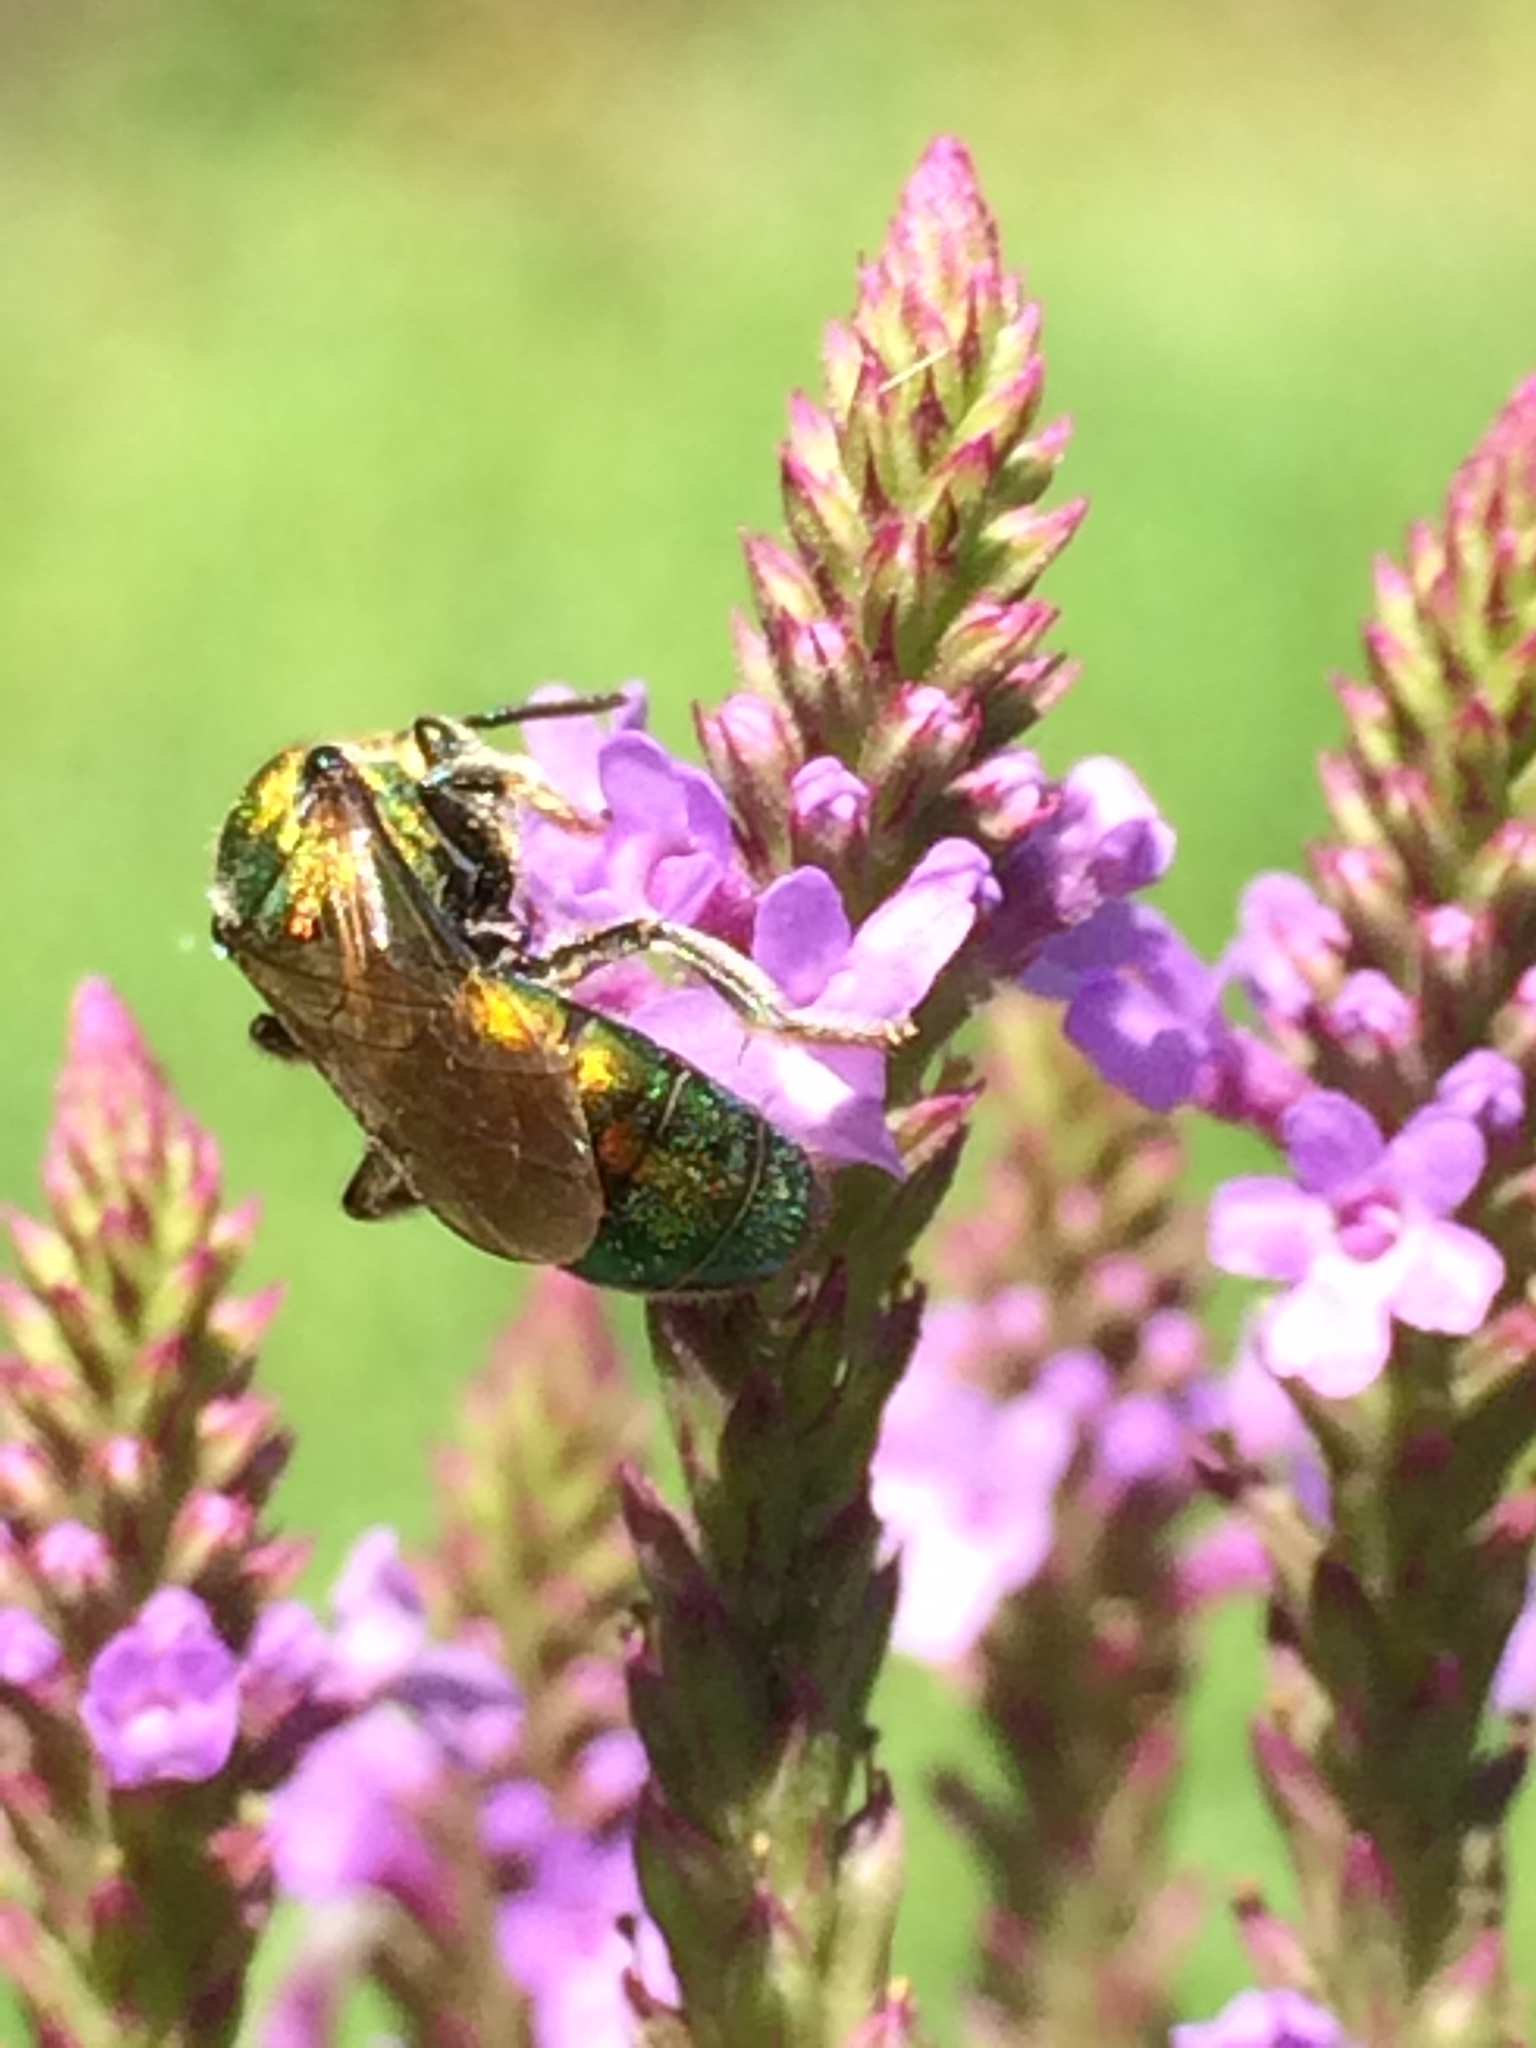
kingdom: Animalia
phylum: Arthropoda
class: Insecta
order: Hymenoptera
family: Halictidae
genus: Augochlora
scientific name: Augochlora pura
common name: Pure green sweat bee
